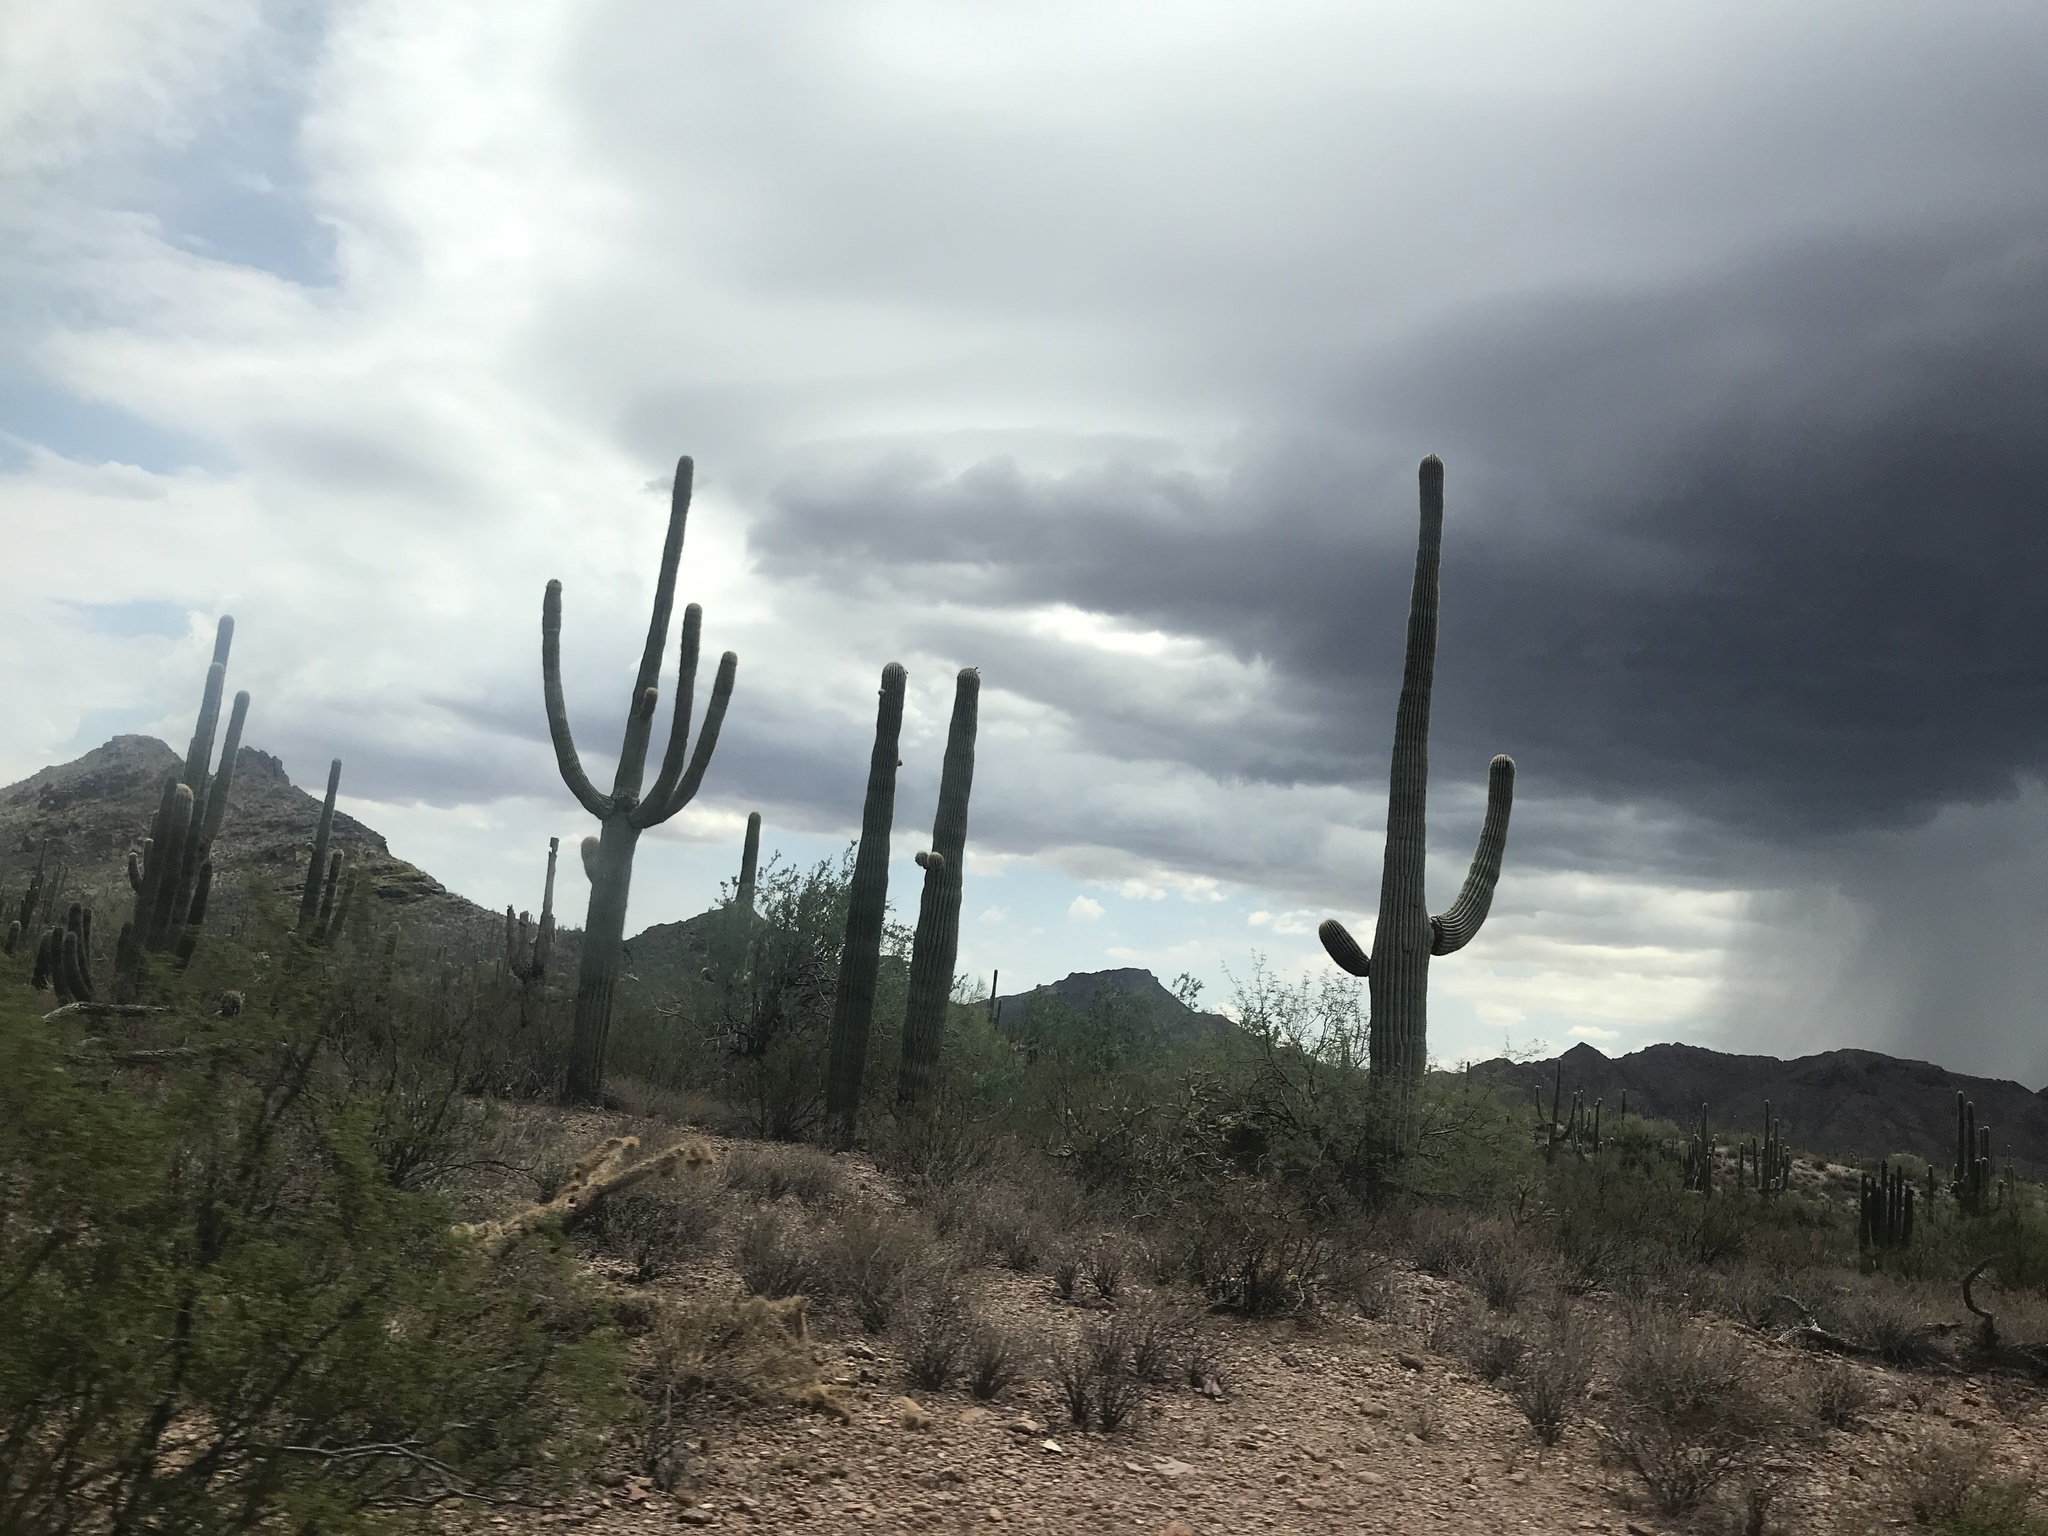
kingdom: Plantae
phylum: Tracheophyta
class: Magnoliopsida
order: Caryophyllales
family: Cactaceae
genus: Carnegiea
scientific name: Carnegiea gigantea
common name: Saguaro
